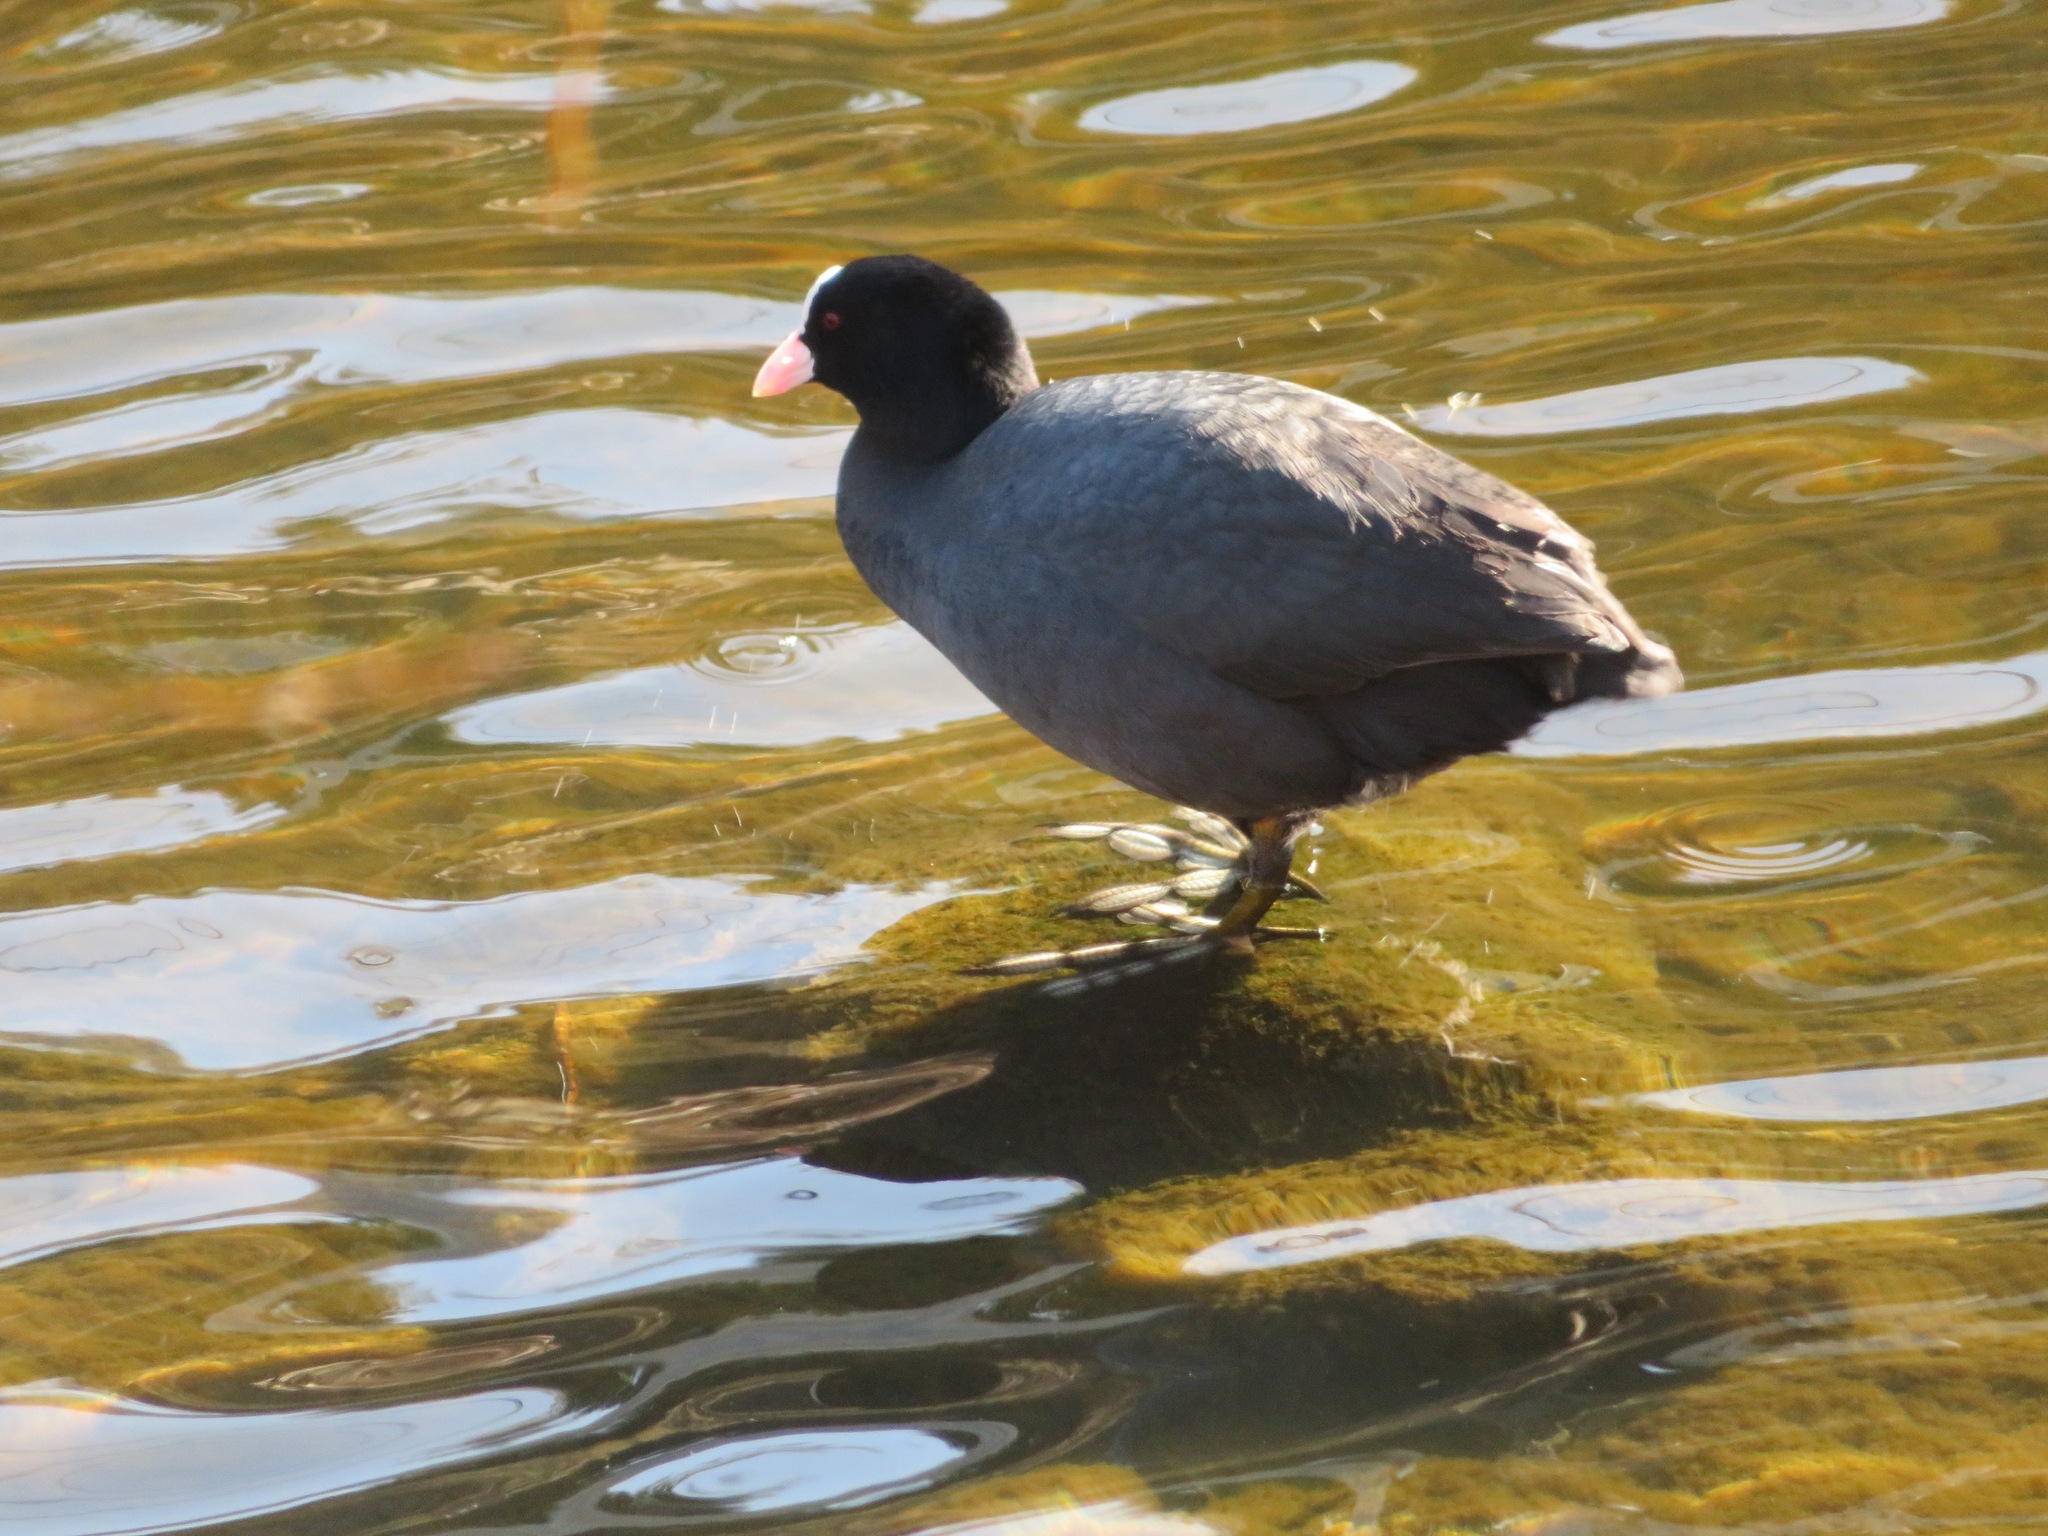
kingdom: Animalia
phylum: Chordata
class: Aves
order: Gruiformes
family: Rallidae
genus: Fulica
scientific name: Fulica atra
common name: Eurasian coot
